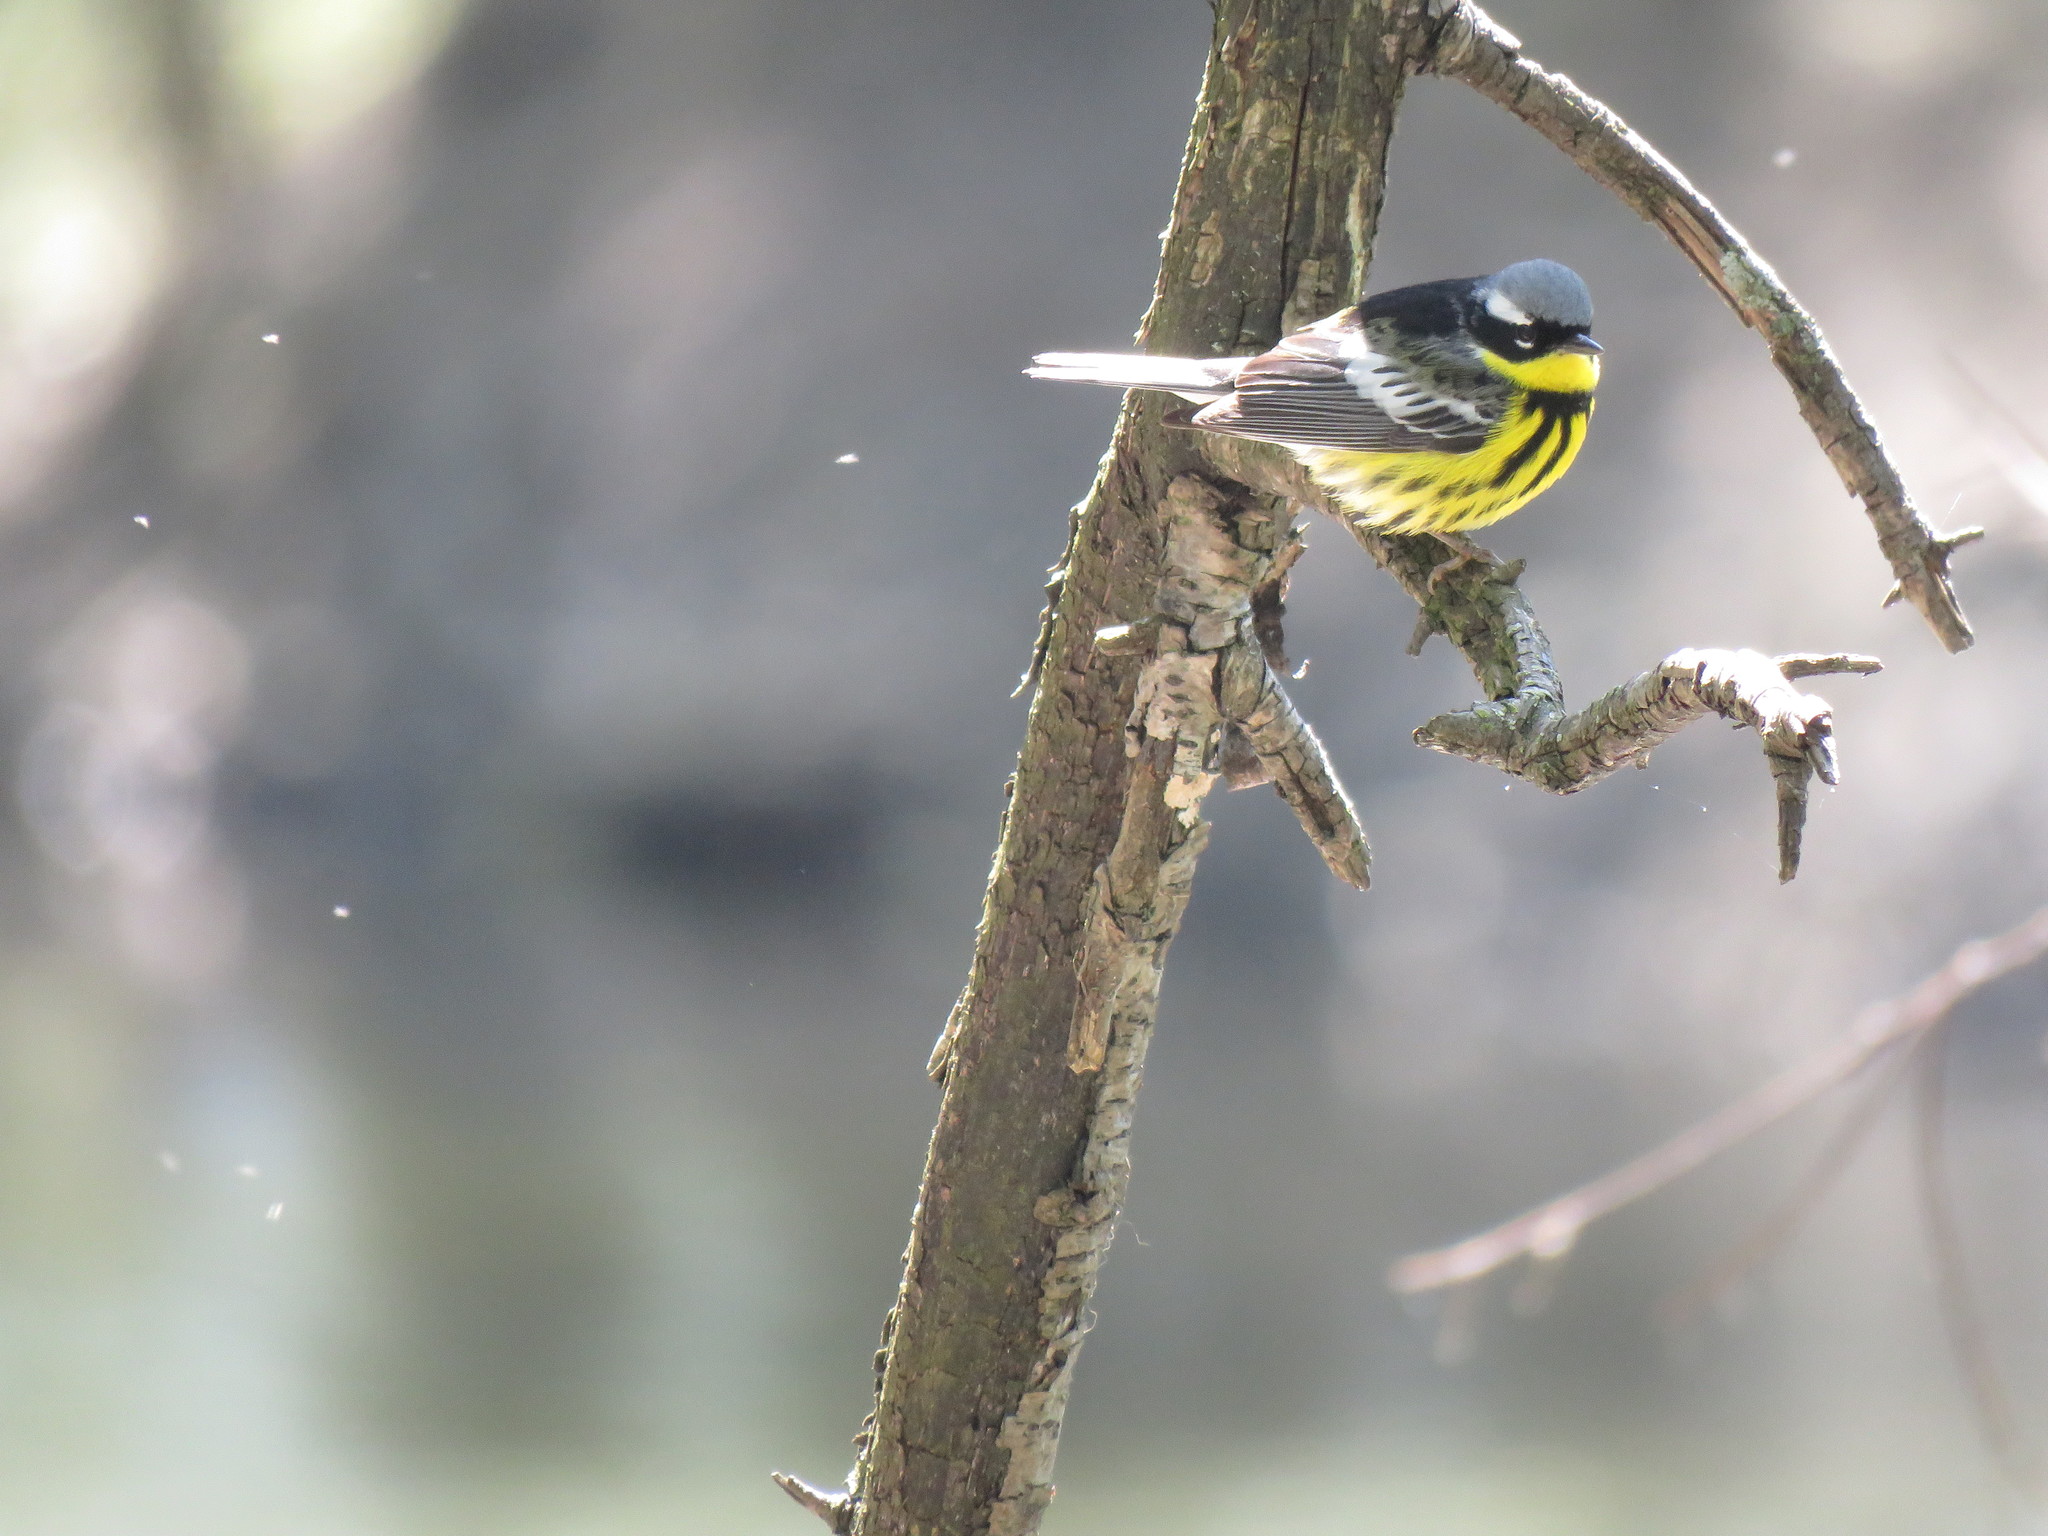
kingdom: Animalia
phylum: Chordata
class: Aves
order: Passeriformes
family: Parulidae
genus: Setophaga
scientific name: Setophaga magnolia
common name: Magnolia warbler
